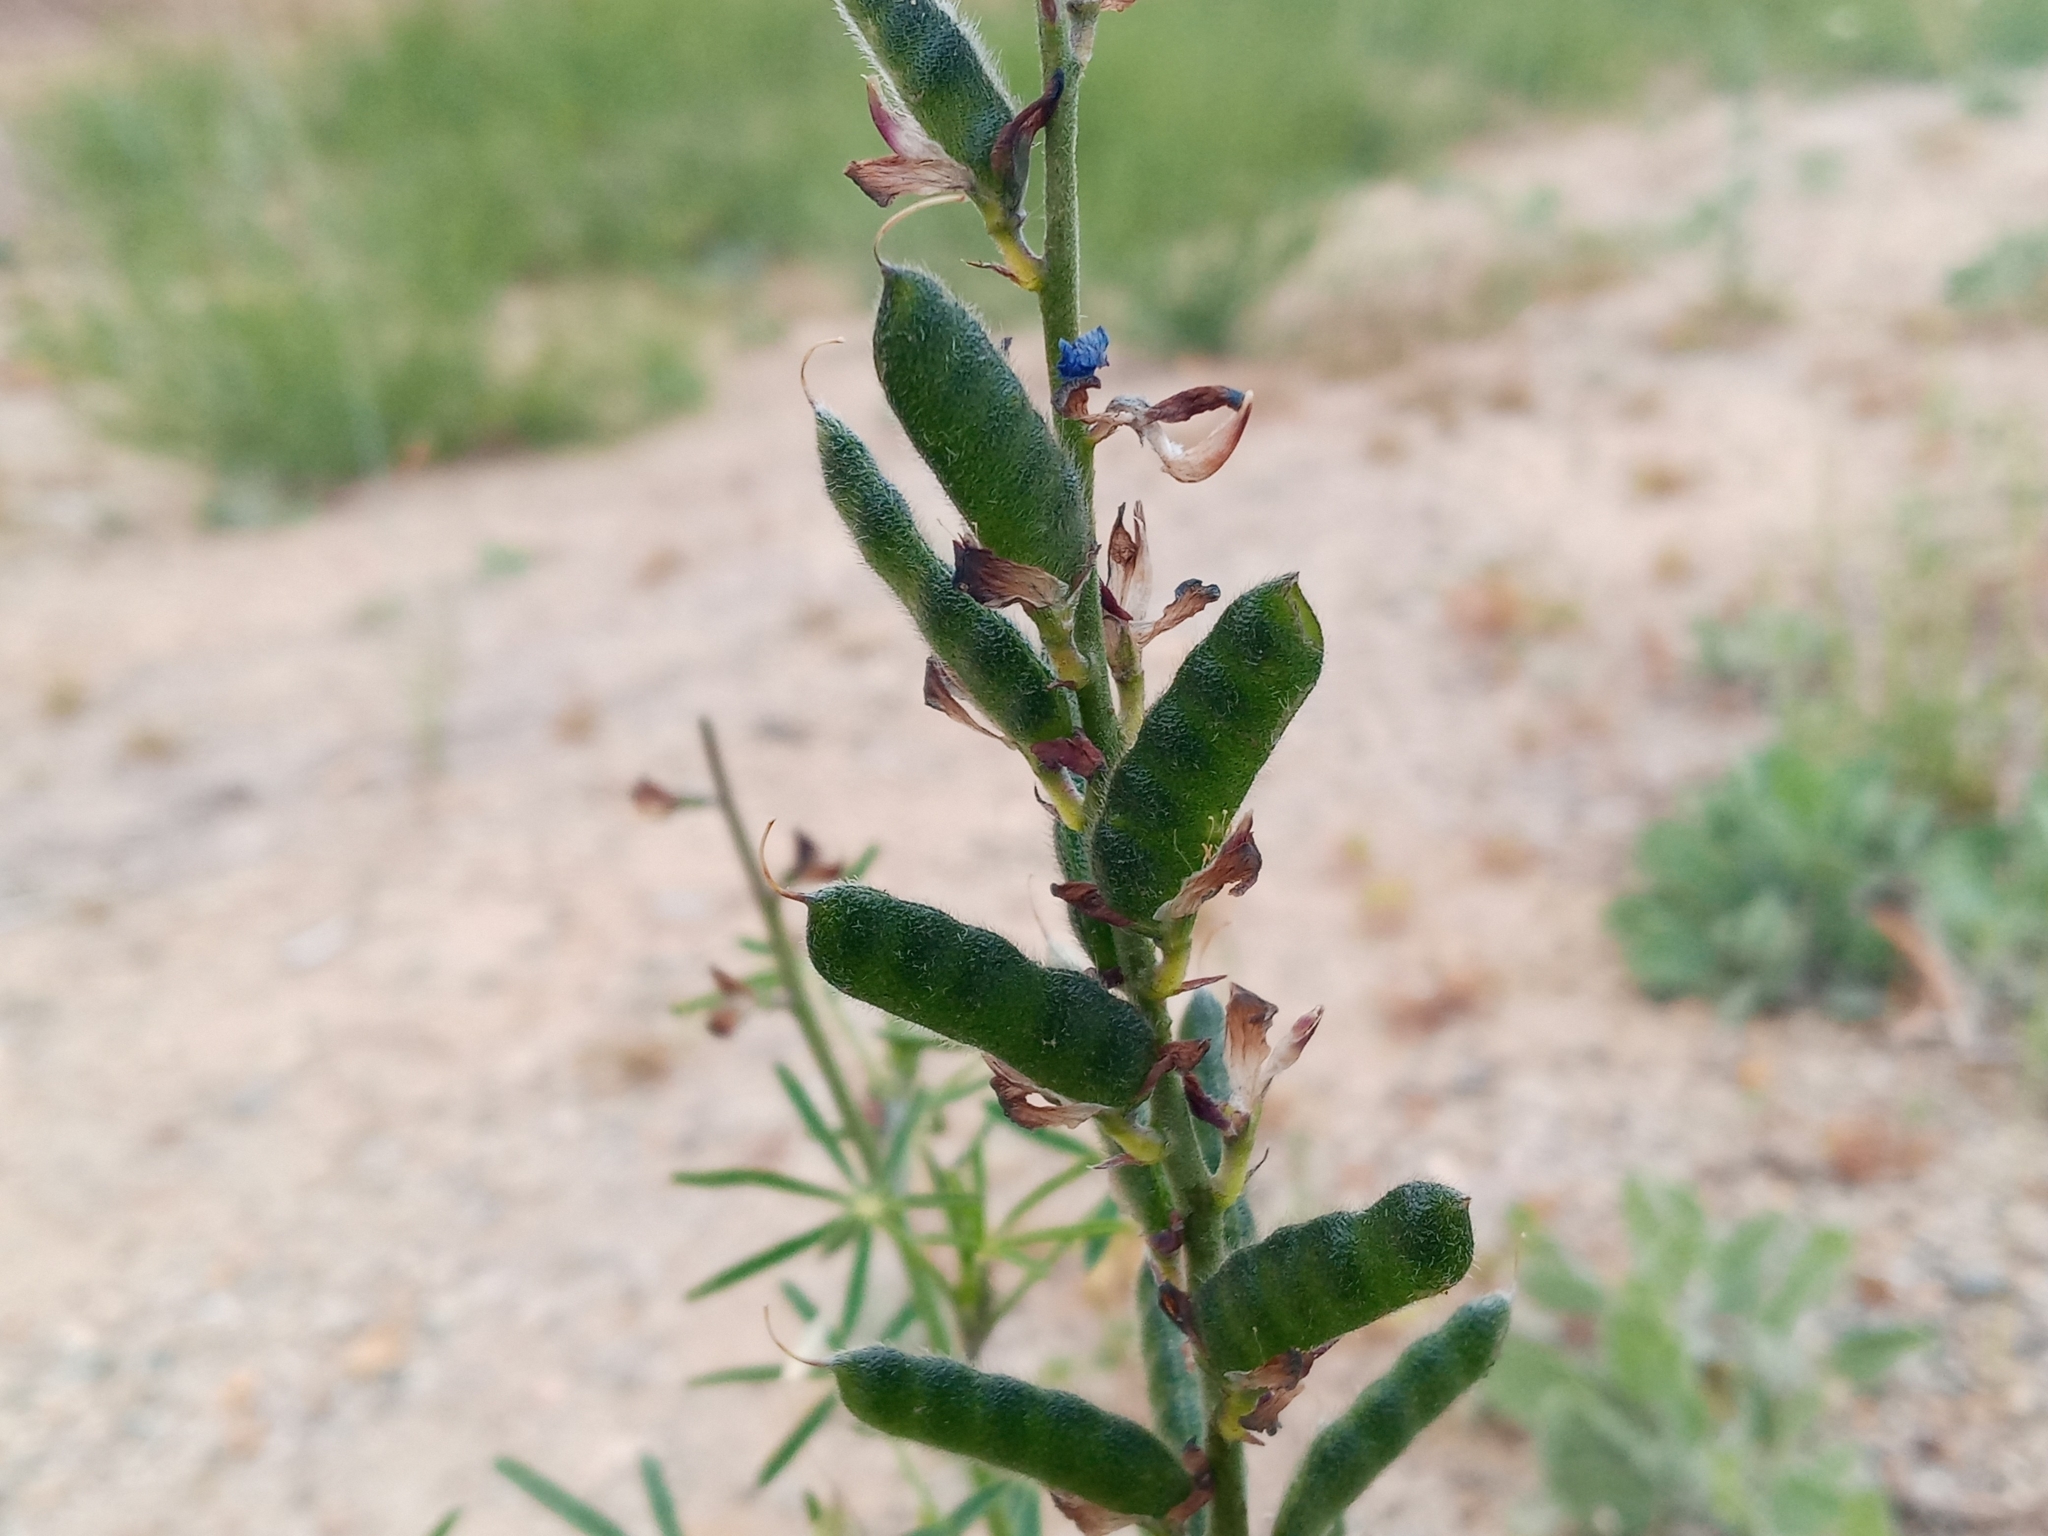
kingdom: Plantae
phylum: Tracheophyta
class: Magnoliopsida
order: Fabales
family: Fabaceae
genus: Lupinus
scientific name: Lupinus truncatus
